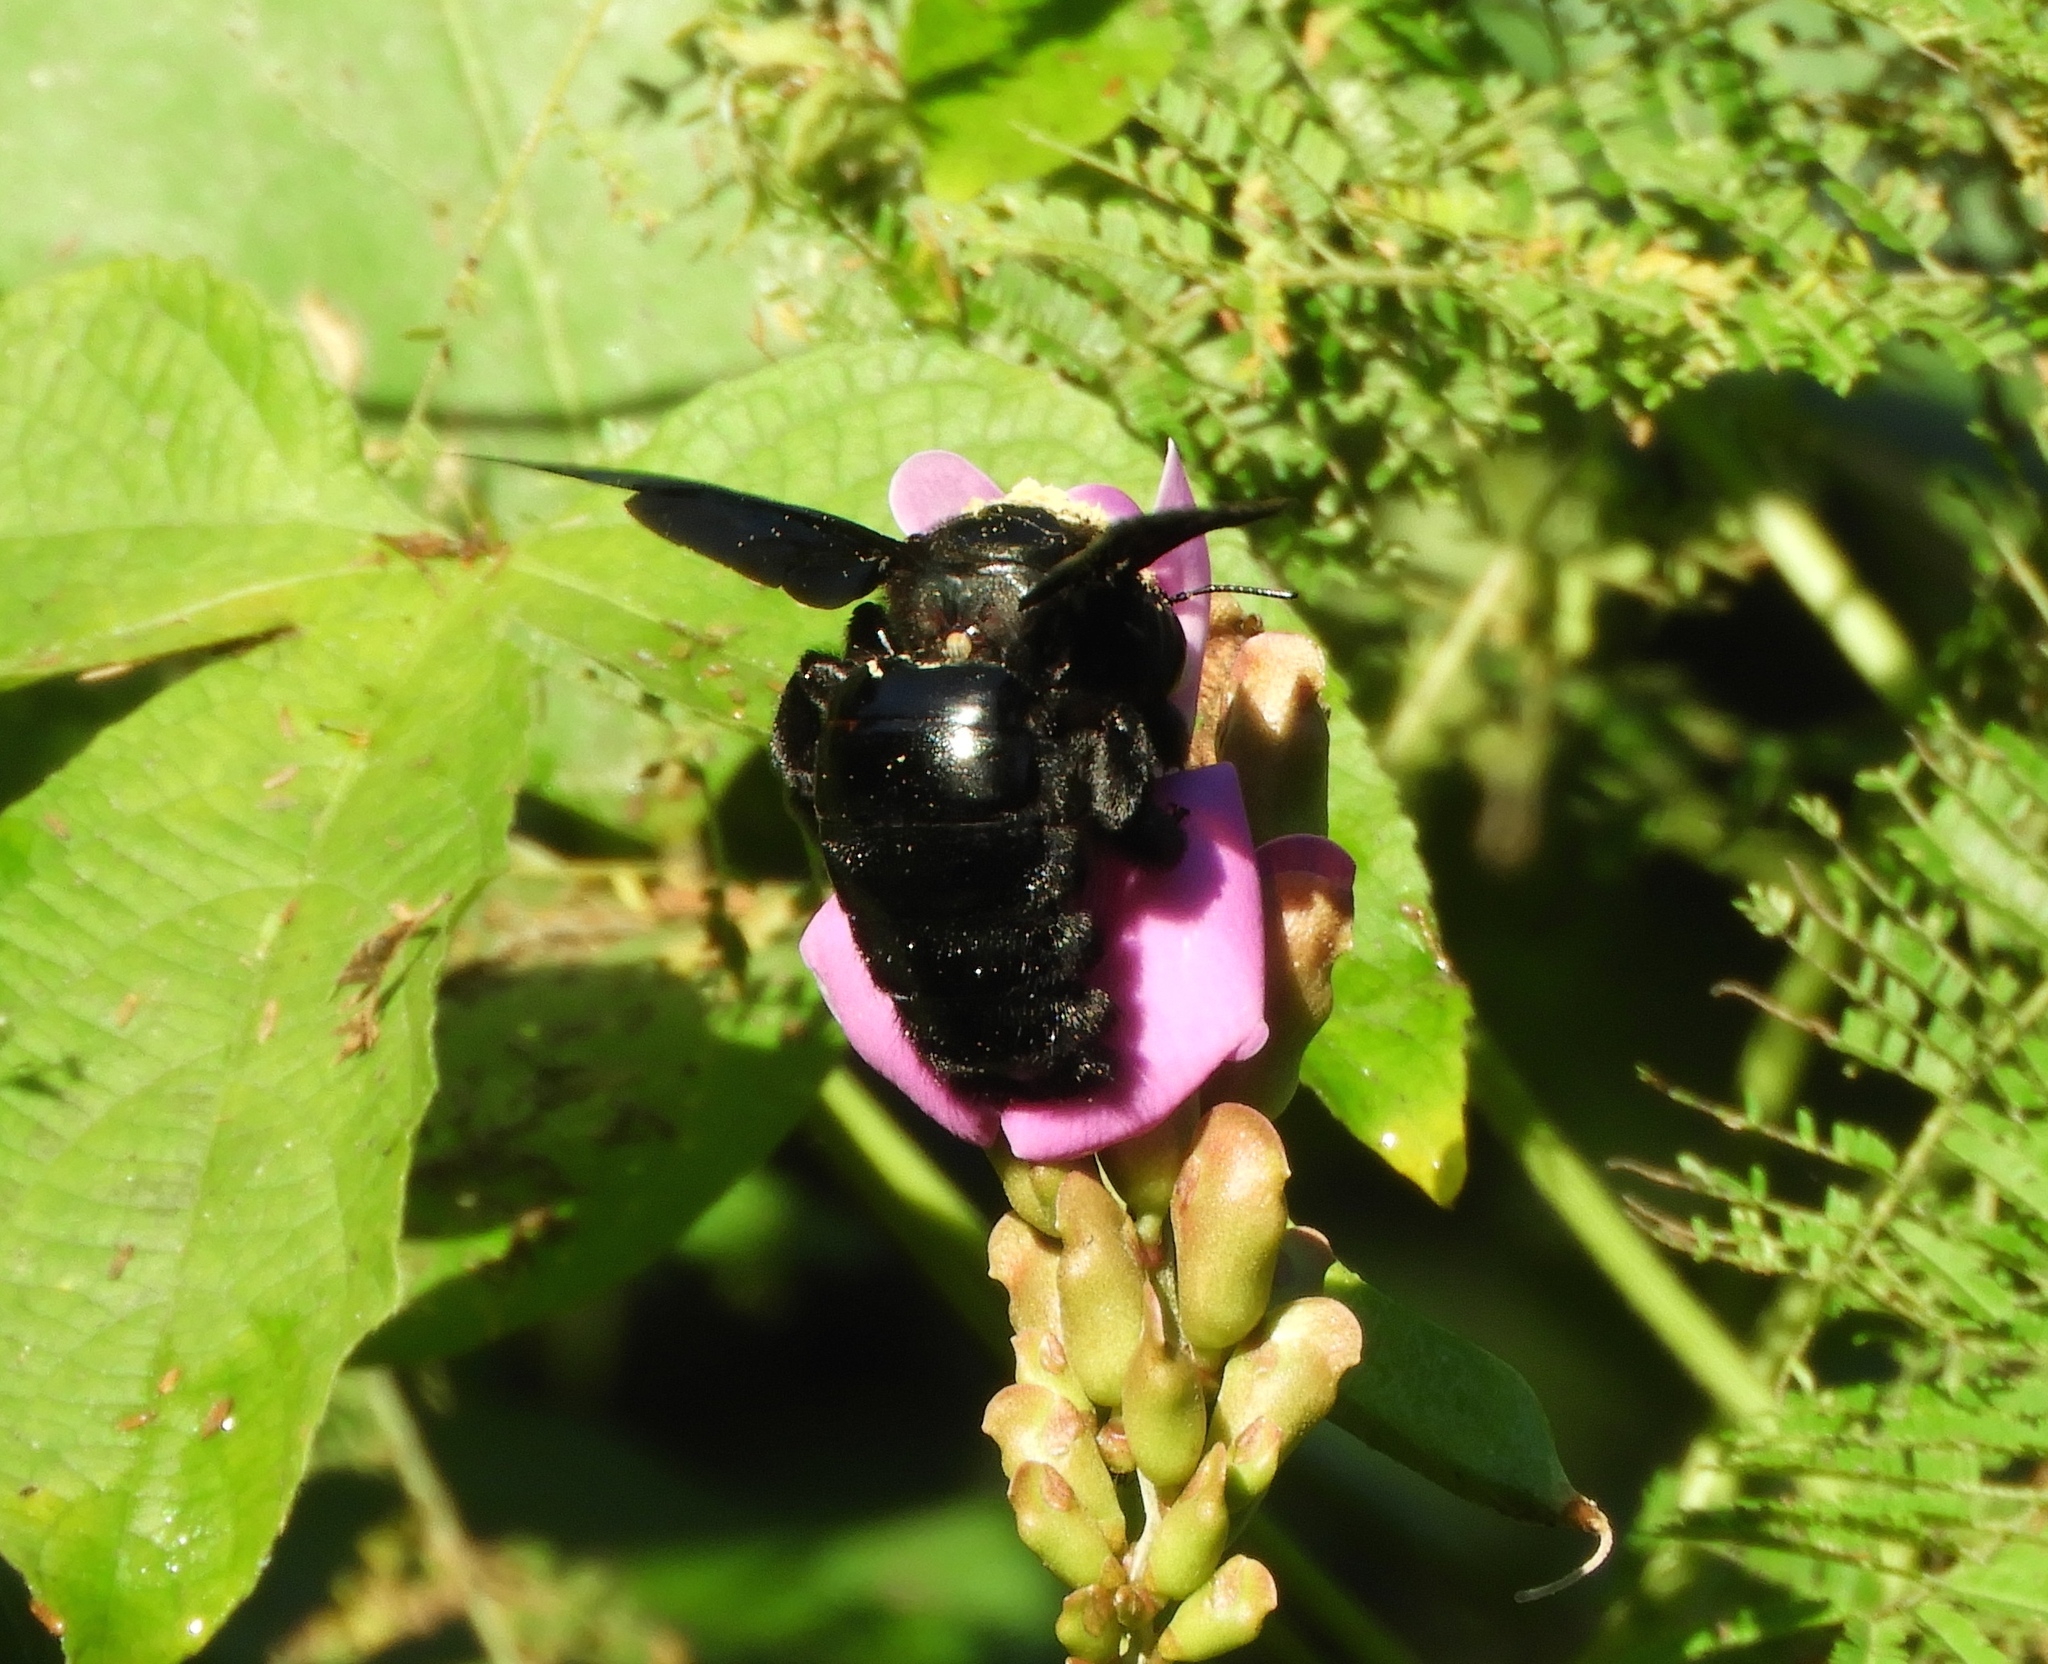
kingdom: Animalia
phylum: Arthropoda
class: Insecta
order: Hymenoptera
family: Apidae
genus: Xylocopa
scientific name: Xylocopa fimbriata
